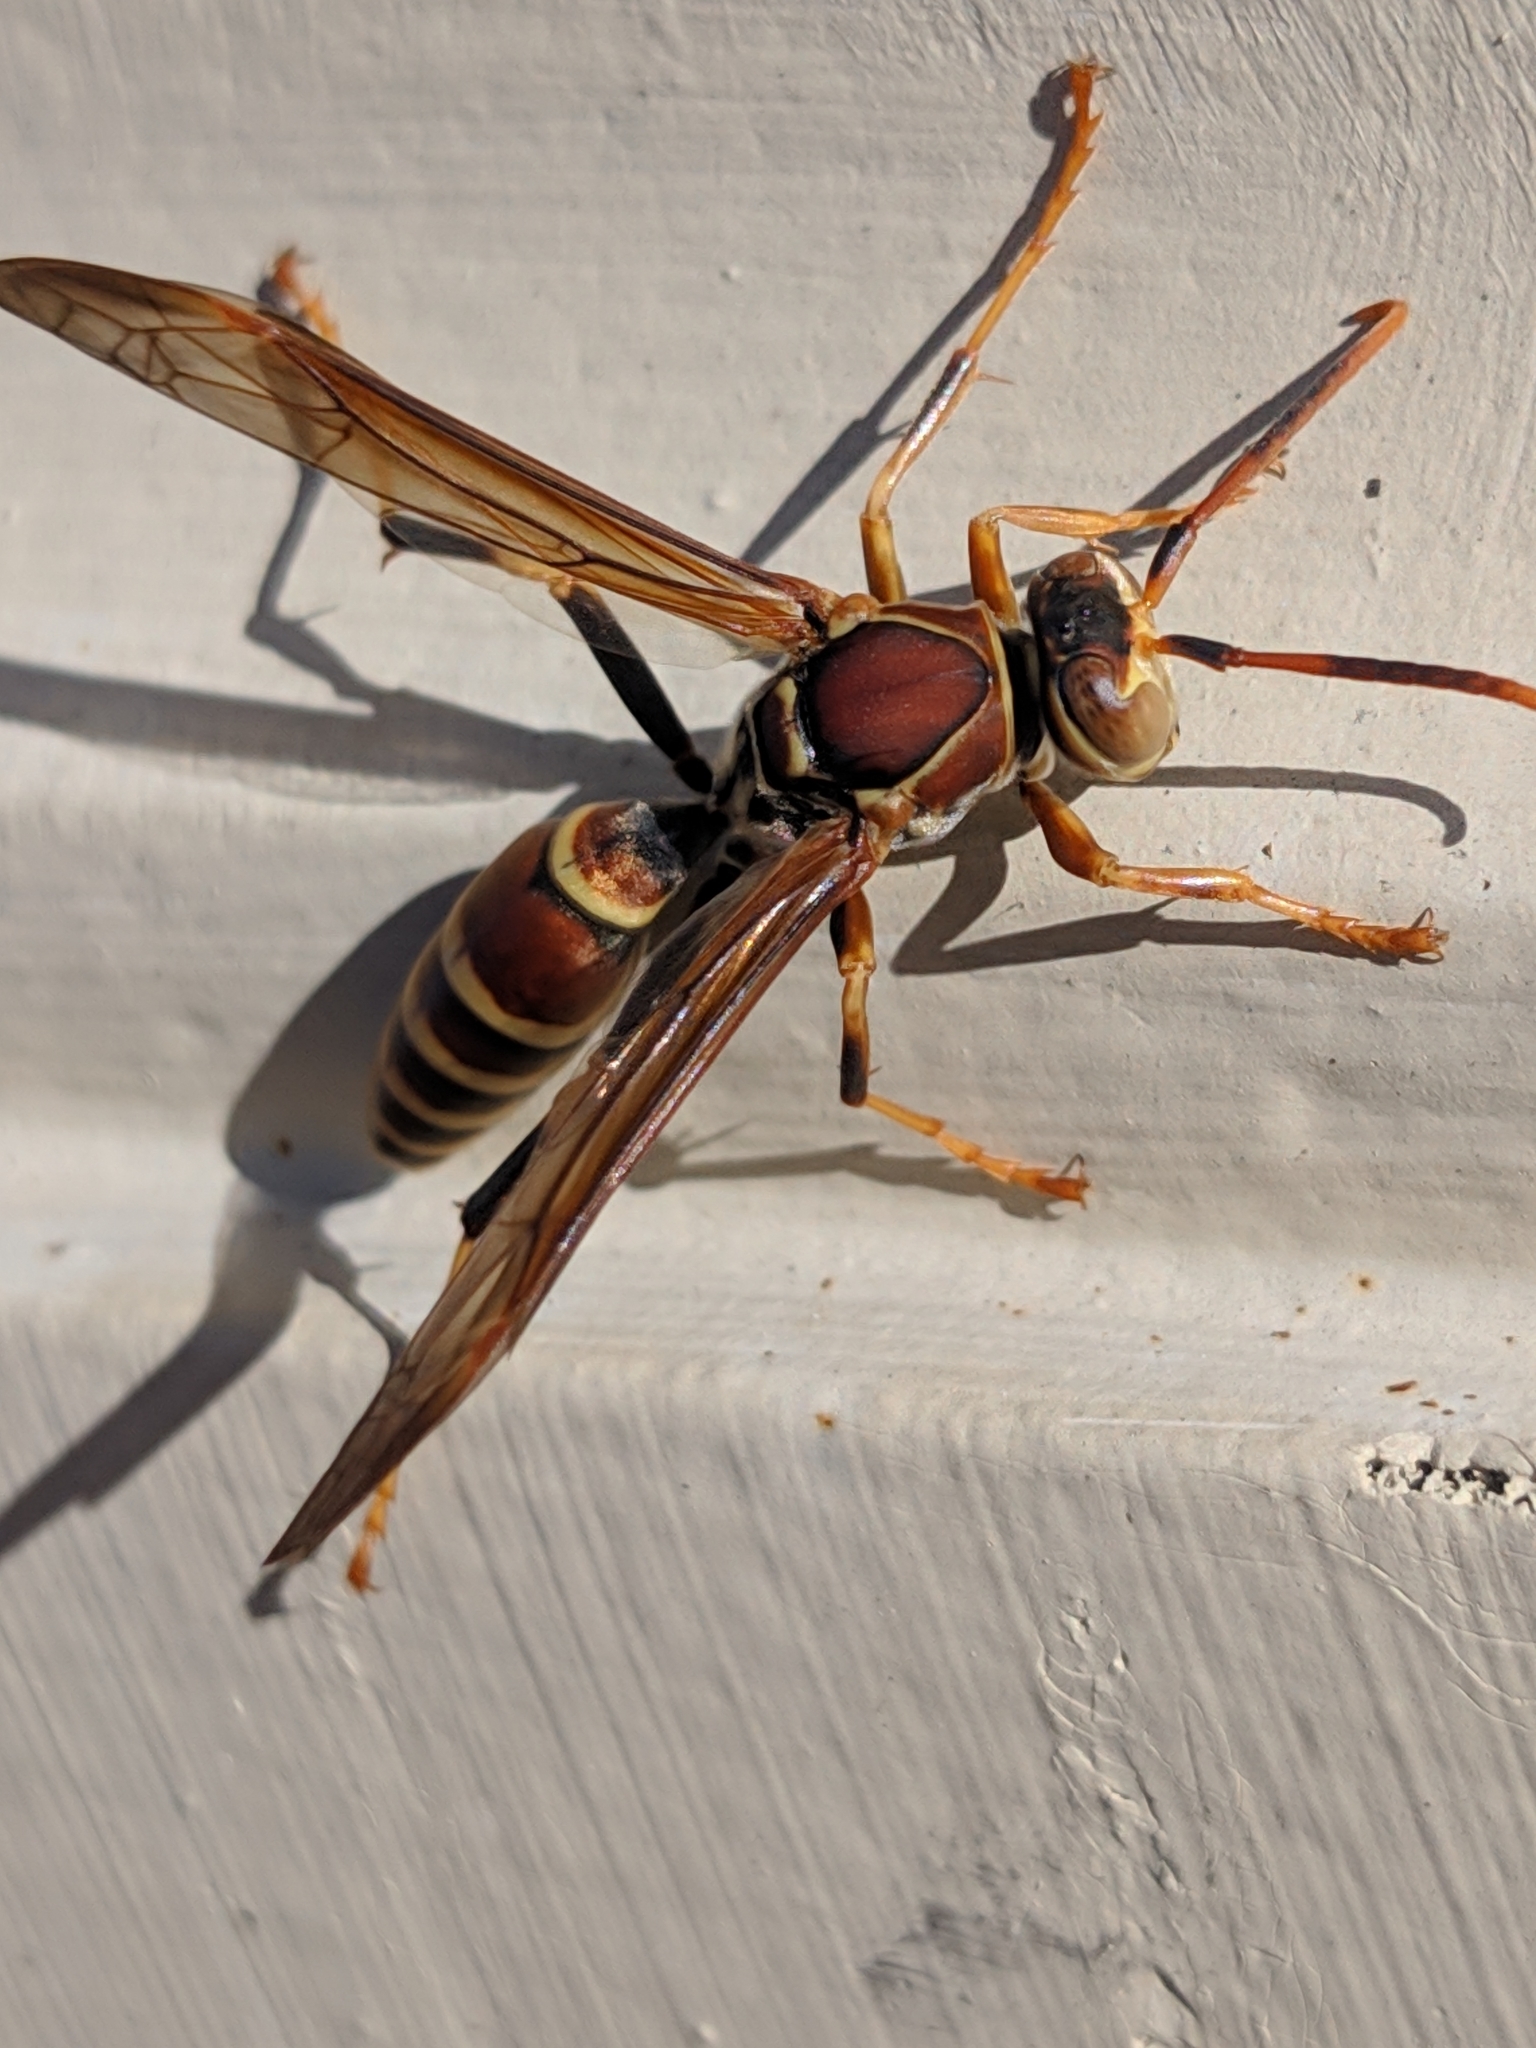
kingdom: Animalia
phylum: Arthropoda
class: Insecta
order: Hymenoptera
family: Eumenidae
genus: Polistes
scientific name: Polistes exclamans
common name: Paper wasp
